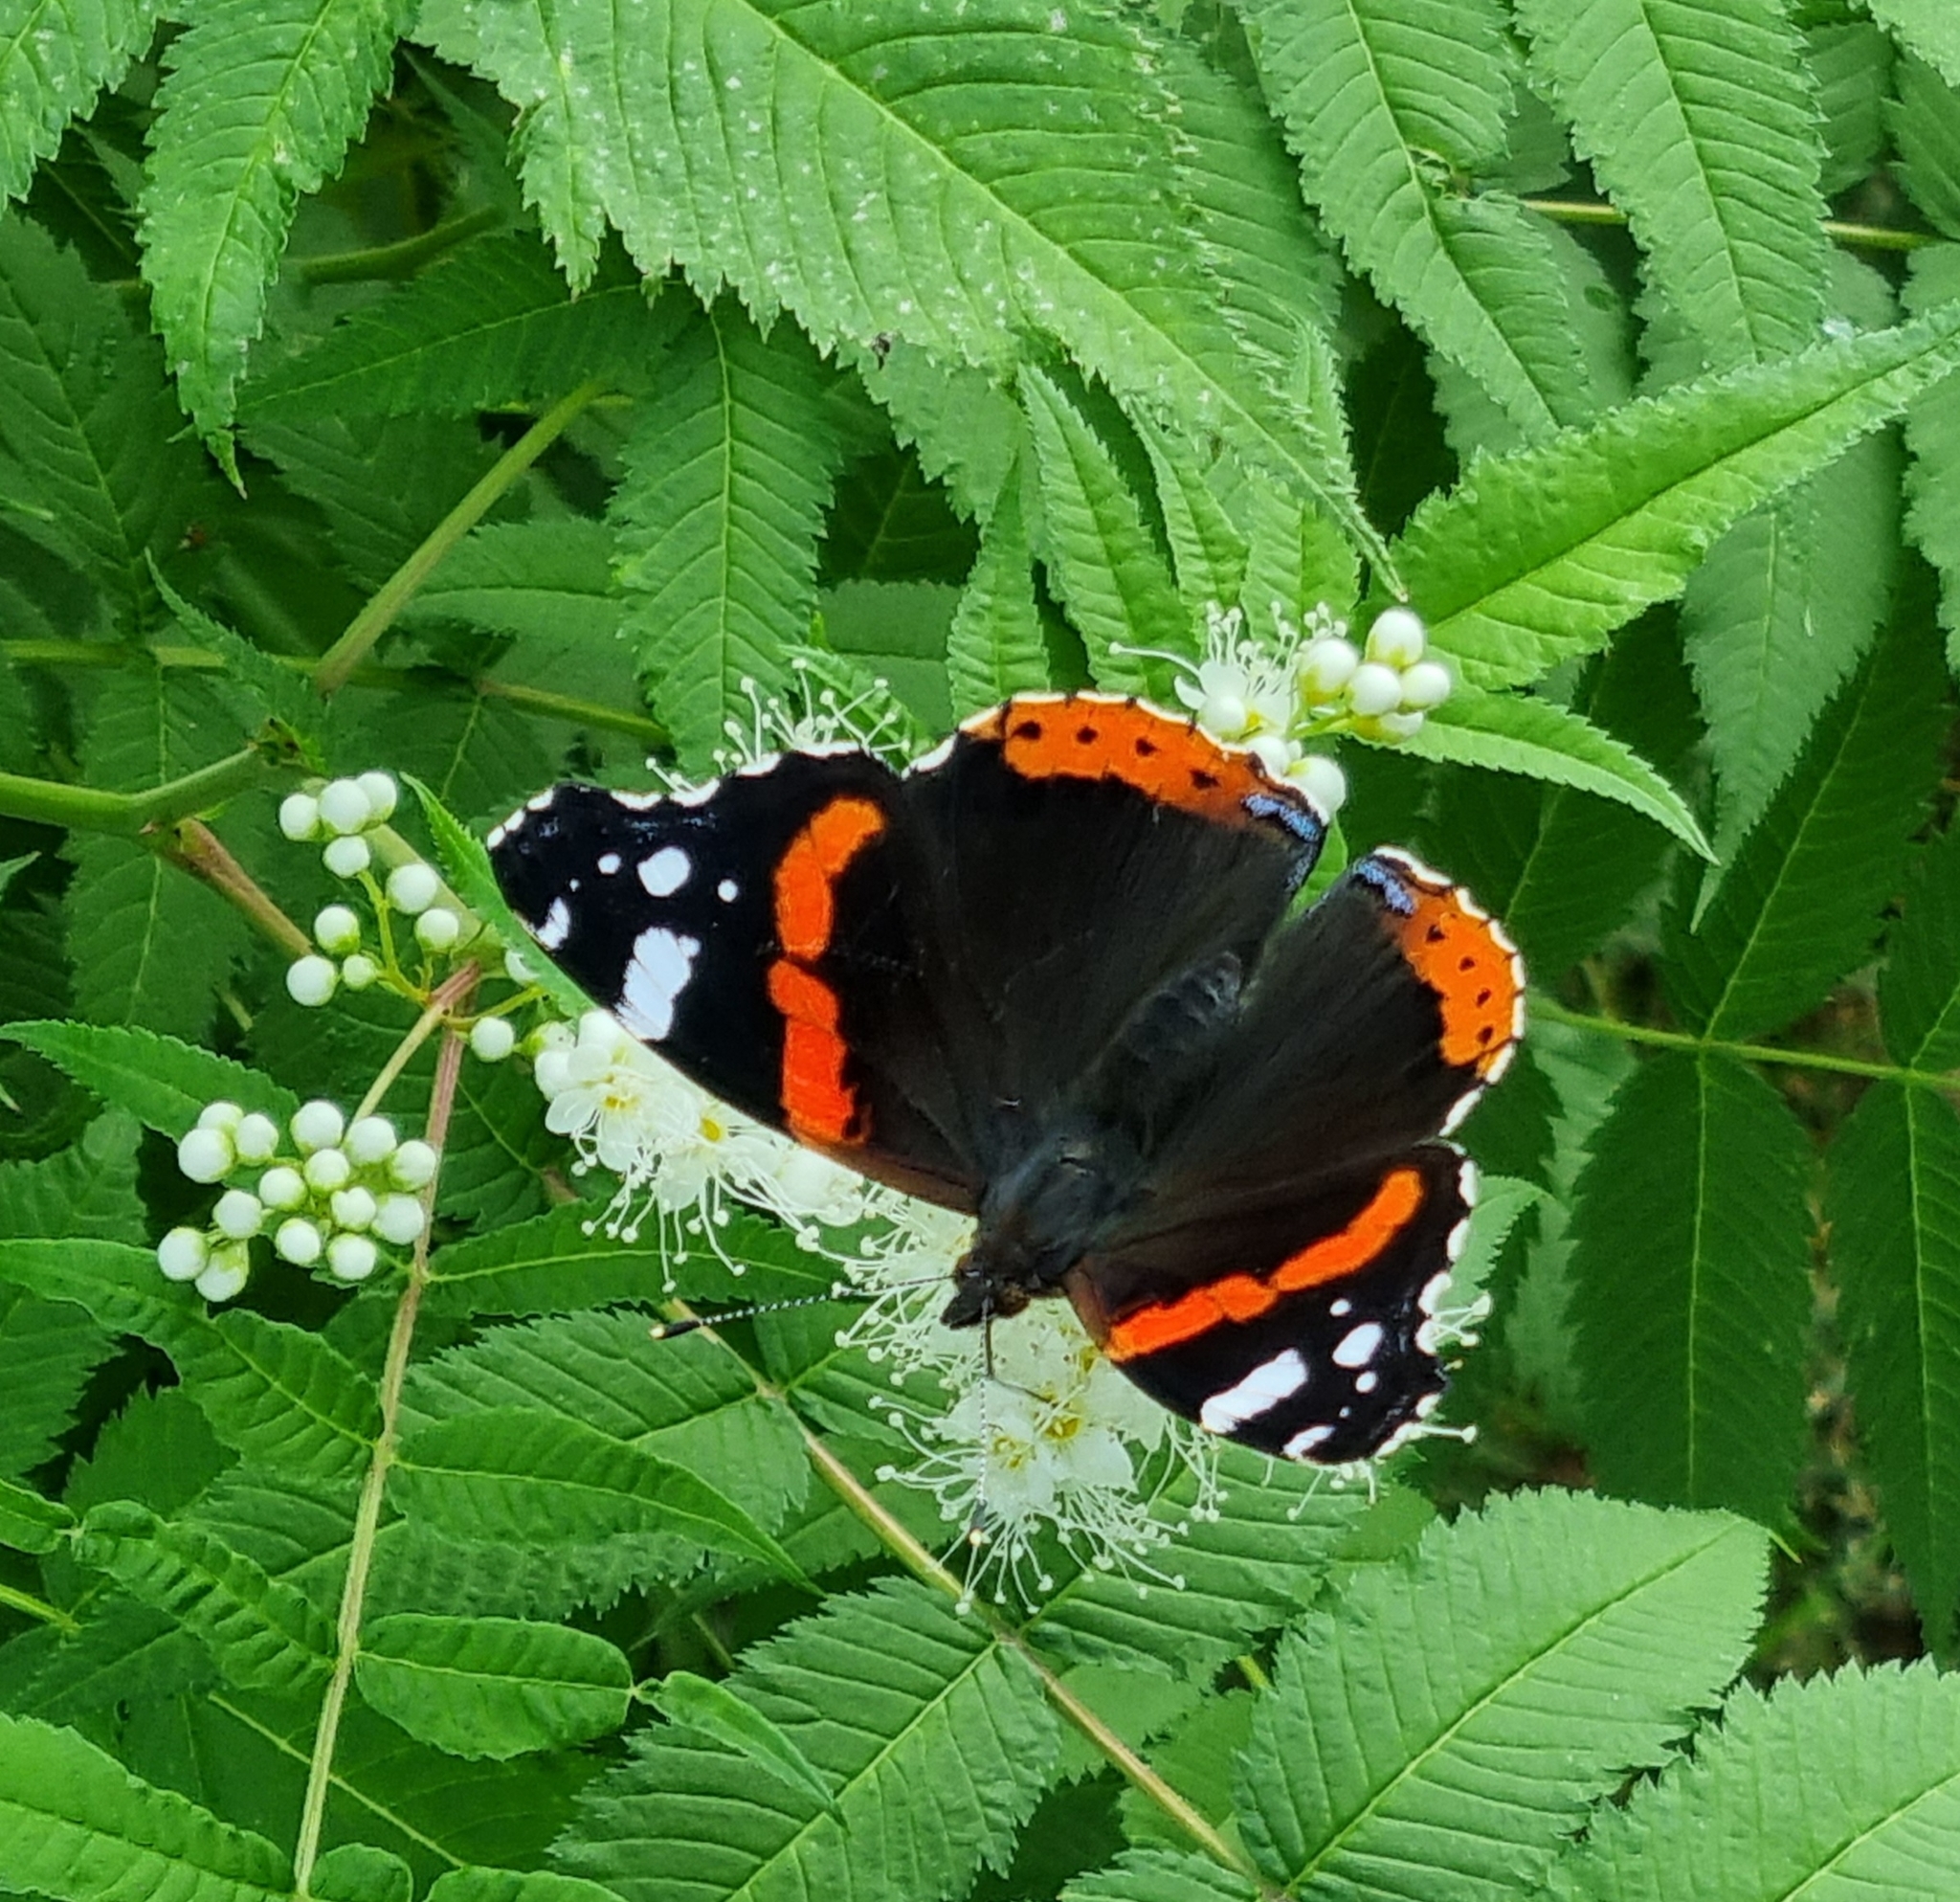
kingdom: Animalia
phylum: Arthropoda
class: Insecta
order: Lepidoptera
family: Nymphalidae
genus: Vanessa
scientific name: Vanessa atalanta
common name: Red admiral
